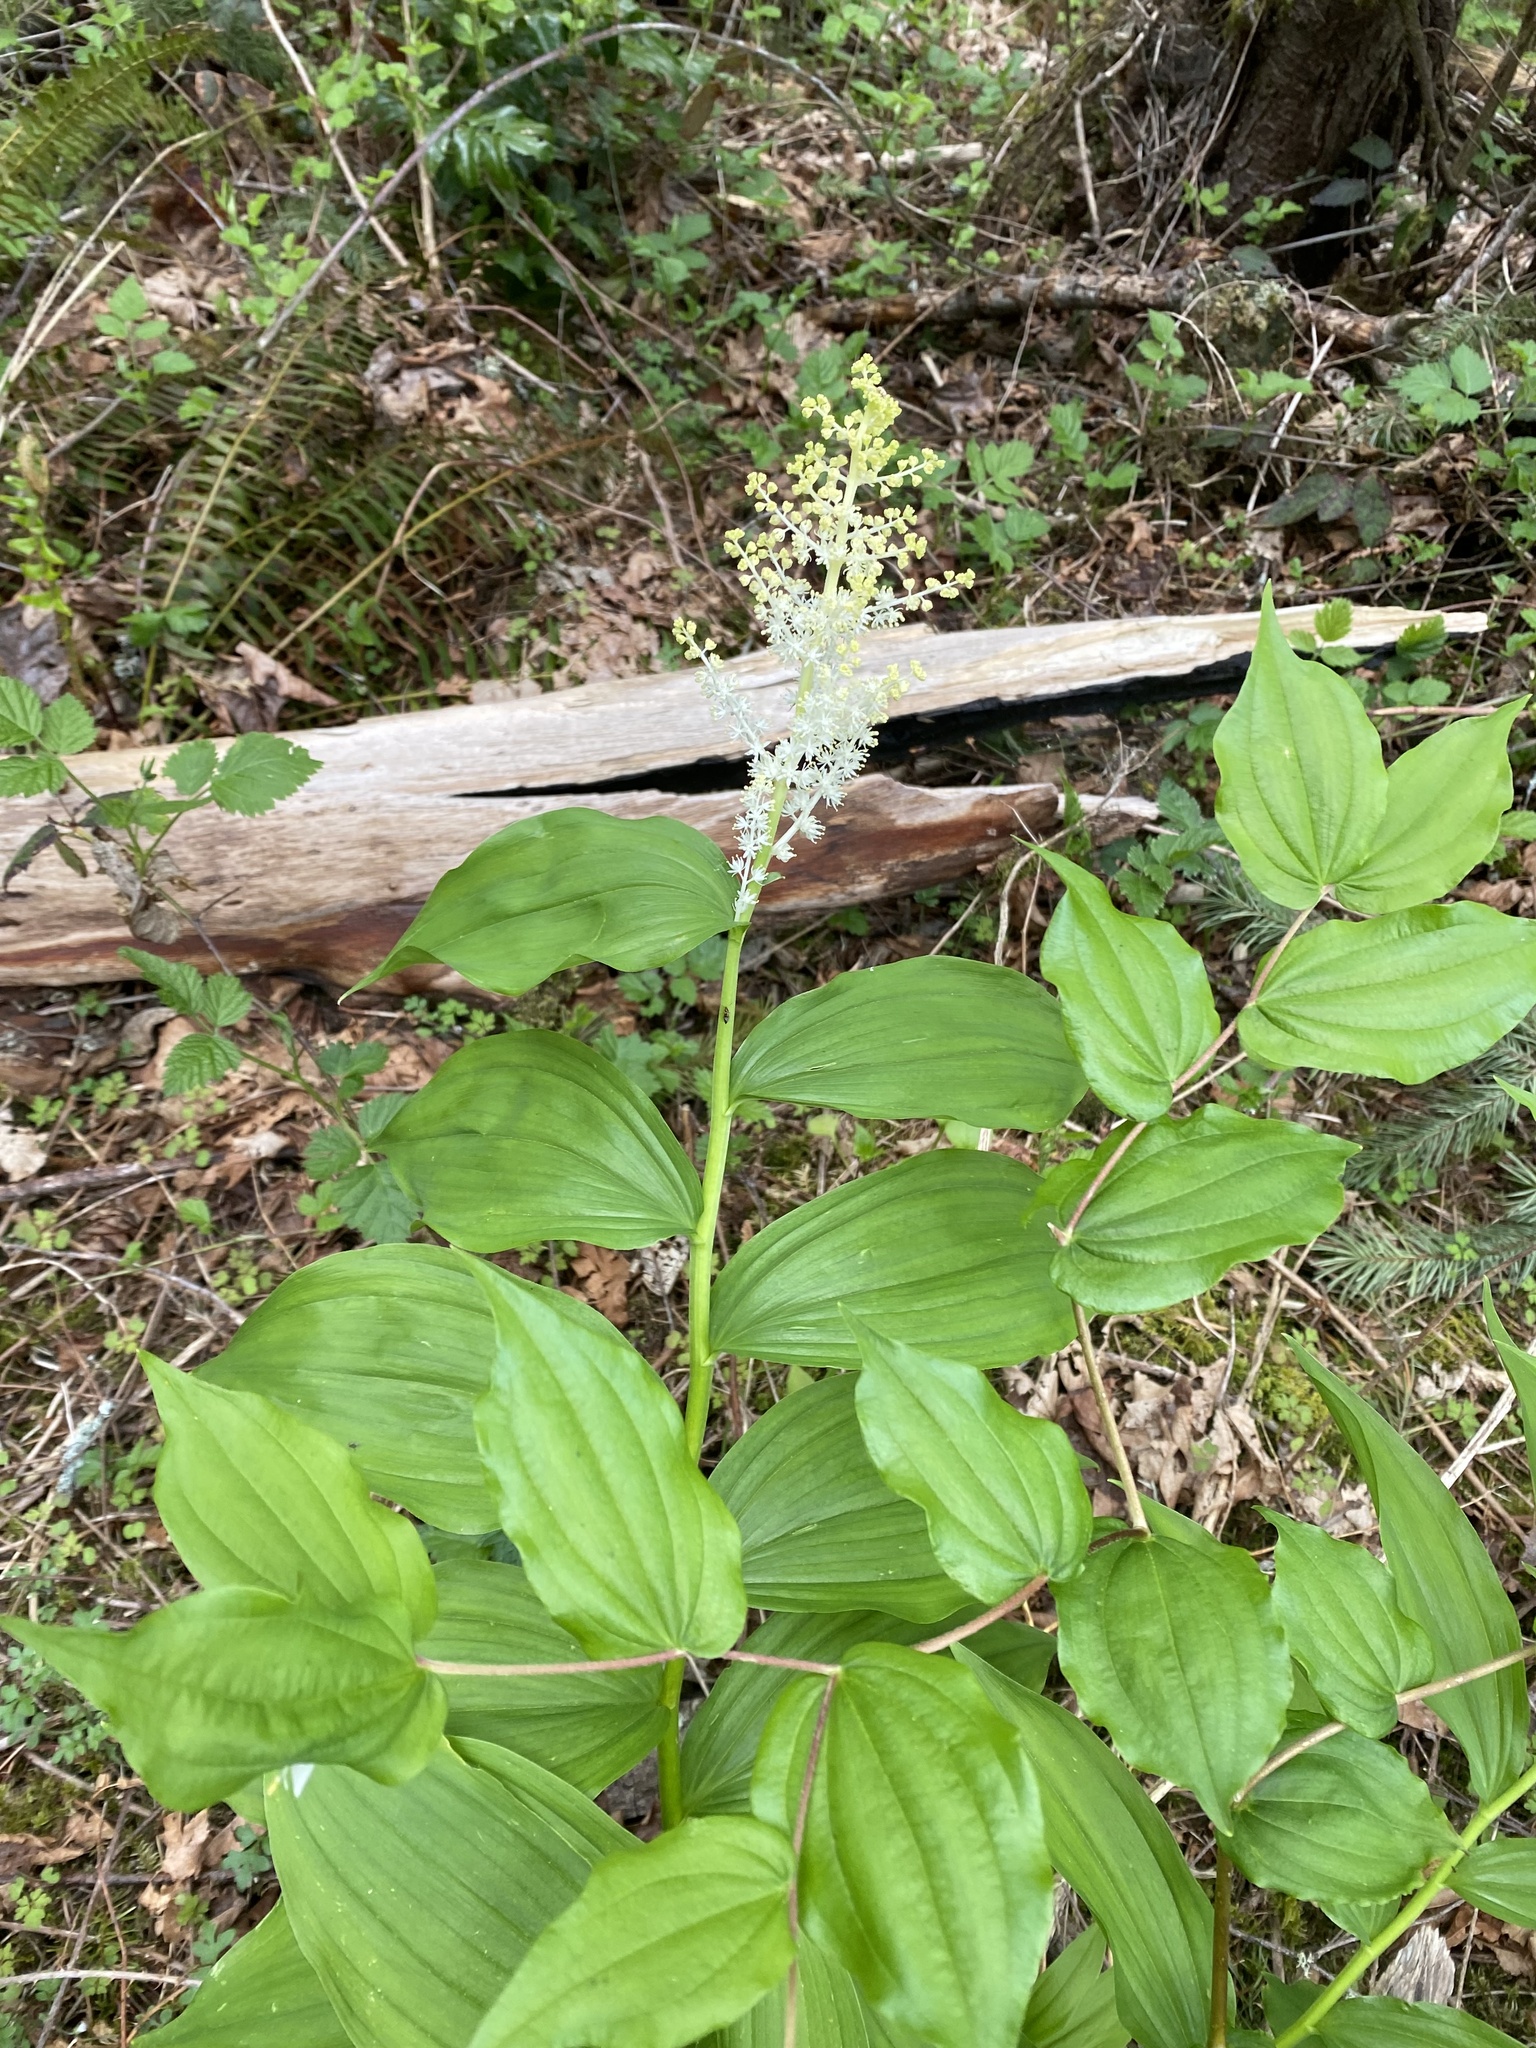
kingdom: Plantae
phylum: Tracheophyta
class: Liliopsida
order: Asparagales
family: Asparagaceae
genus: Maianthemum
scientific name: Maianthemum racemosum
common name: False spikenard
